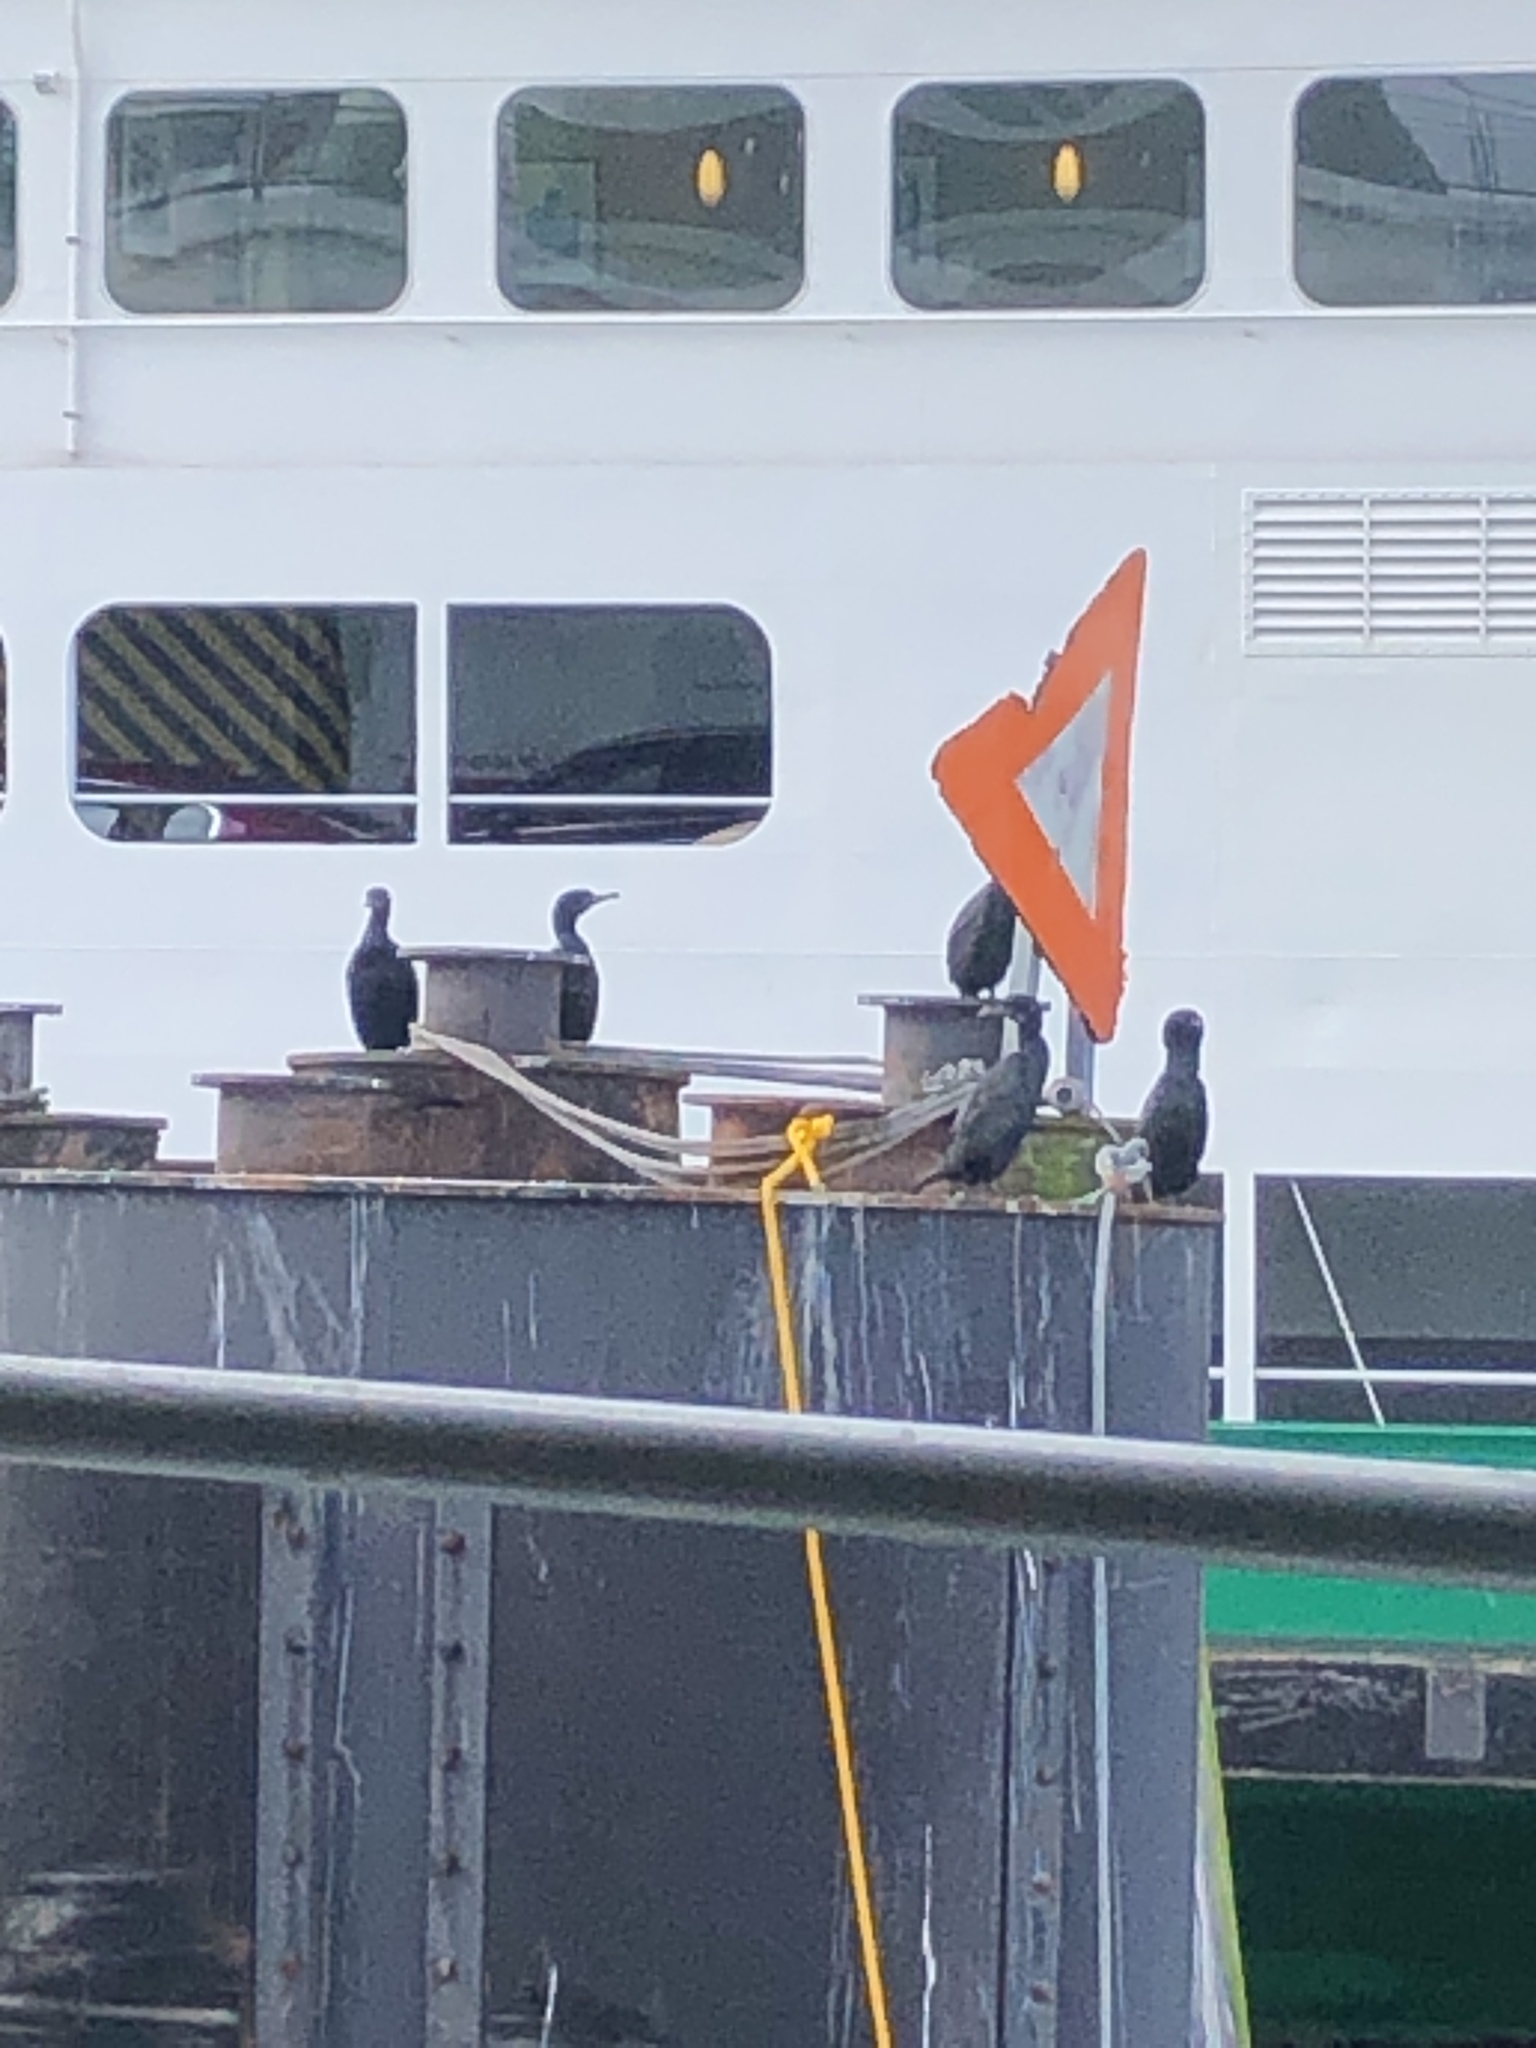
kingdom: Animalia
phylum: Chordata
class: Aves
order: Suliformes
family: Phalacrocoracidae
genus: Urile
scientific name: Urile penicillatus
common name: Brandt's cormorant
